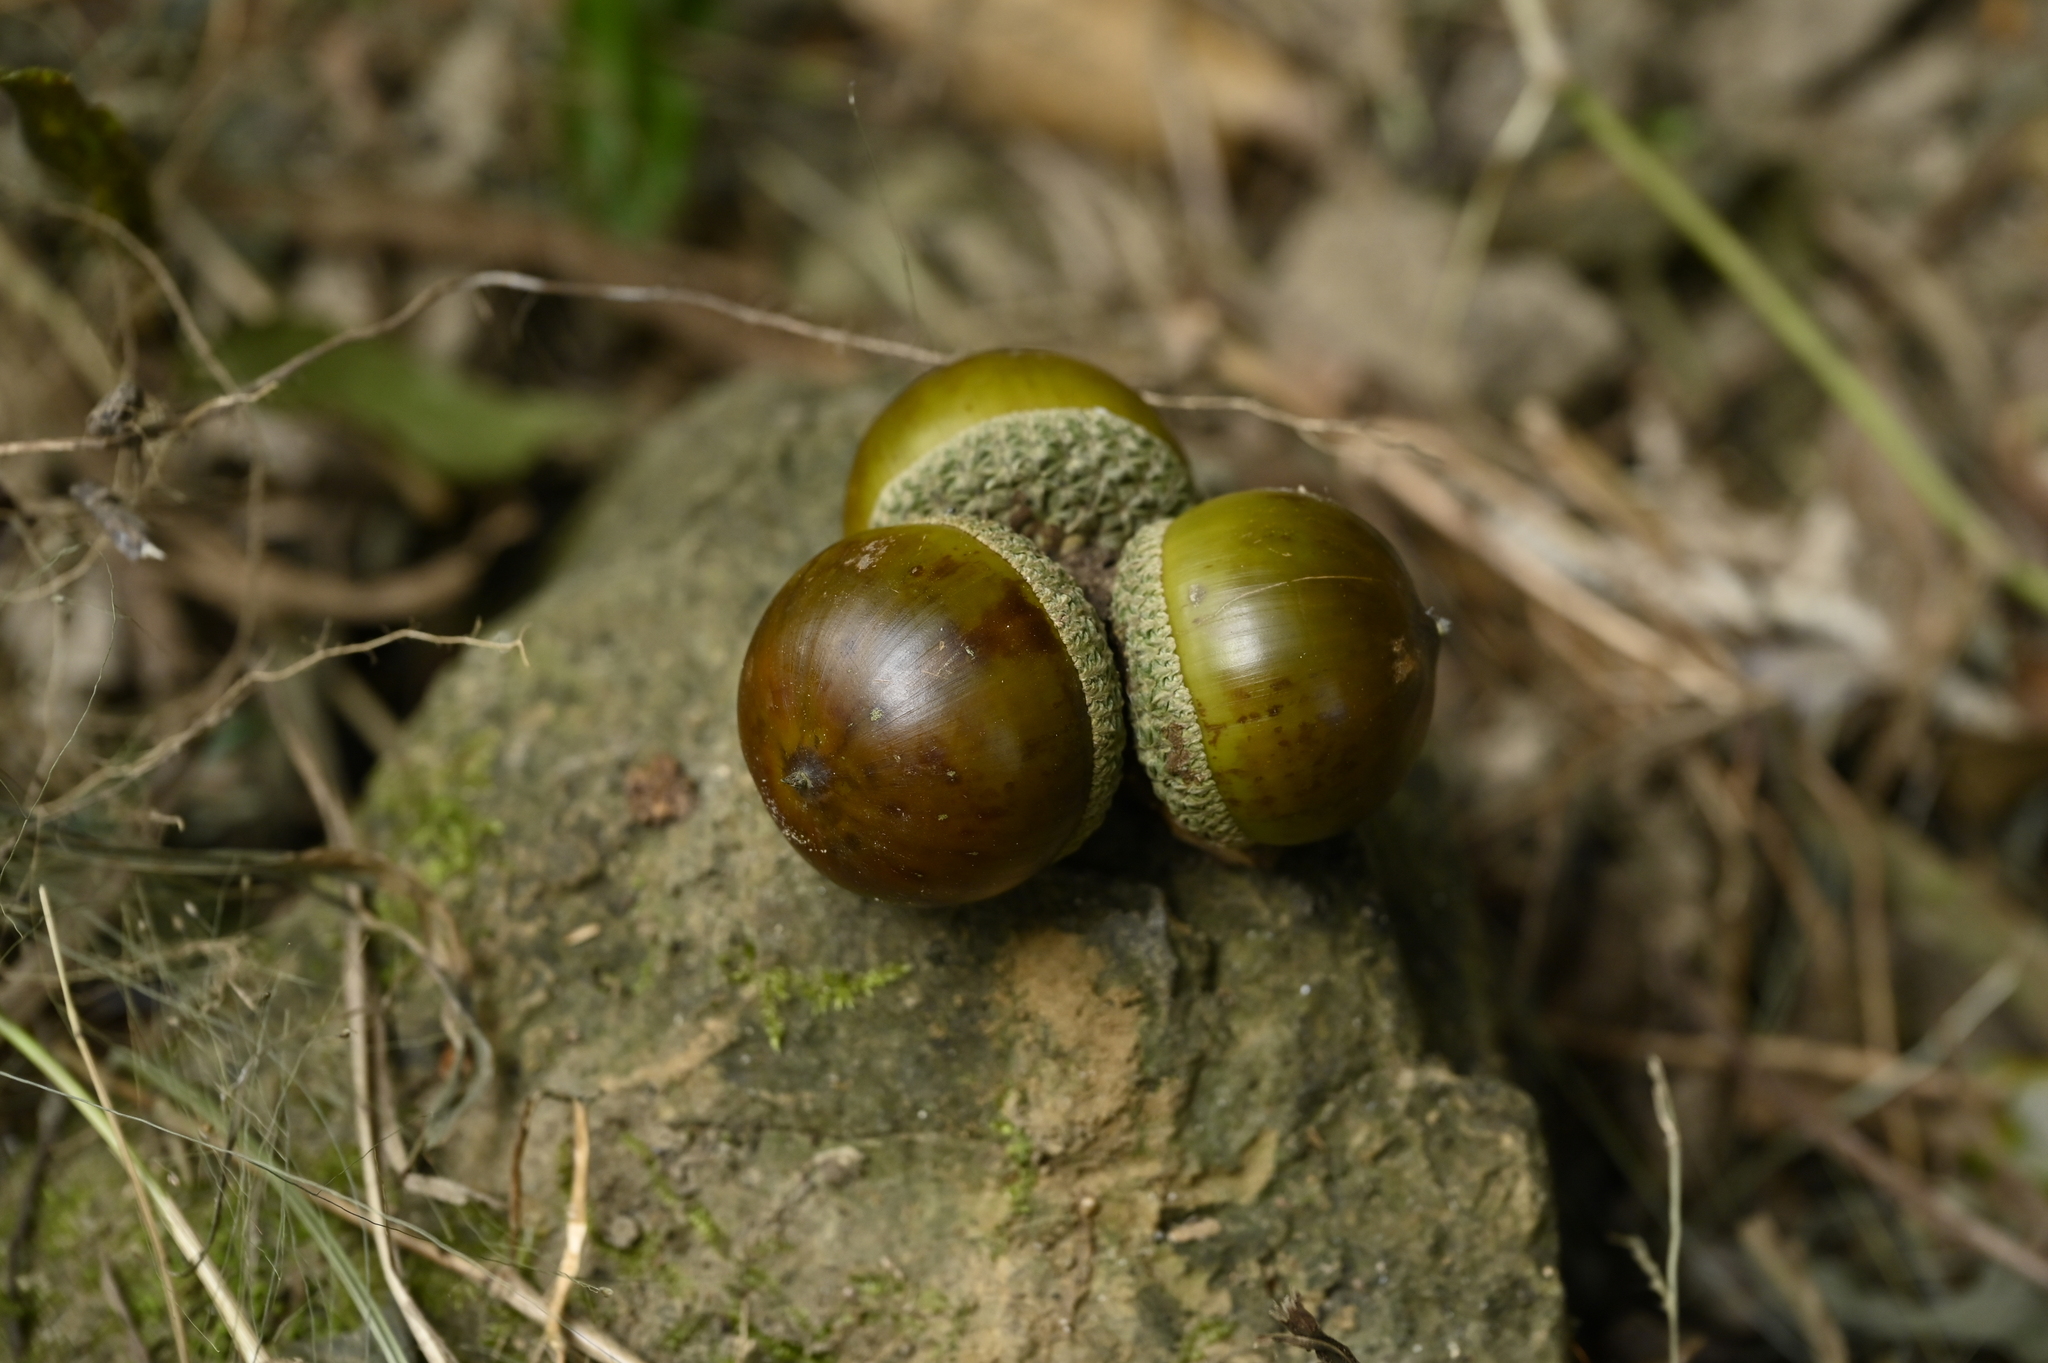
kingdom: Plantae
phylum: Tracheophyta
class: Magnoliopsida
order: Fagales
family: Fagaceae
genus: Lithocarpus
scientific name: Lithocarpus konishii
